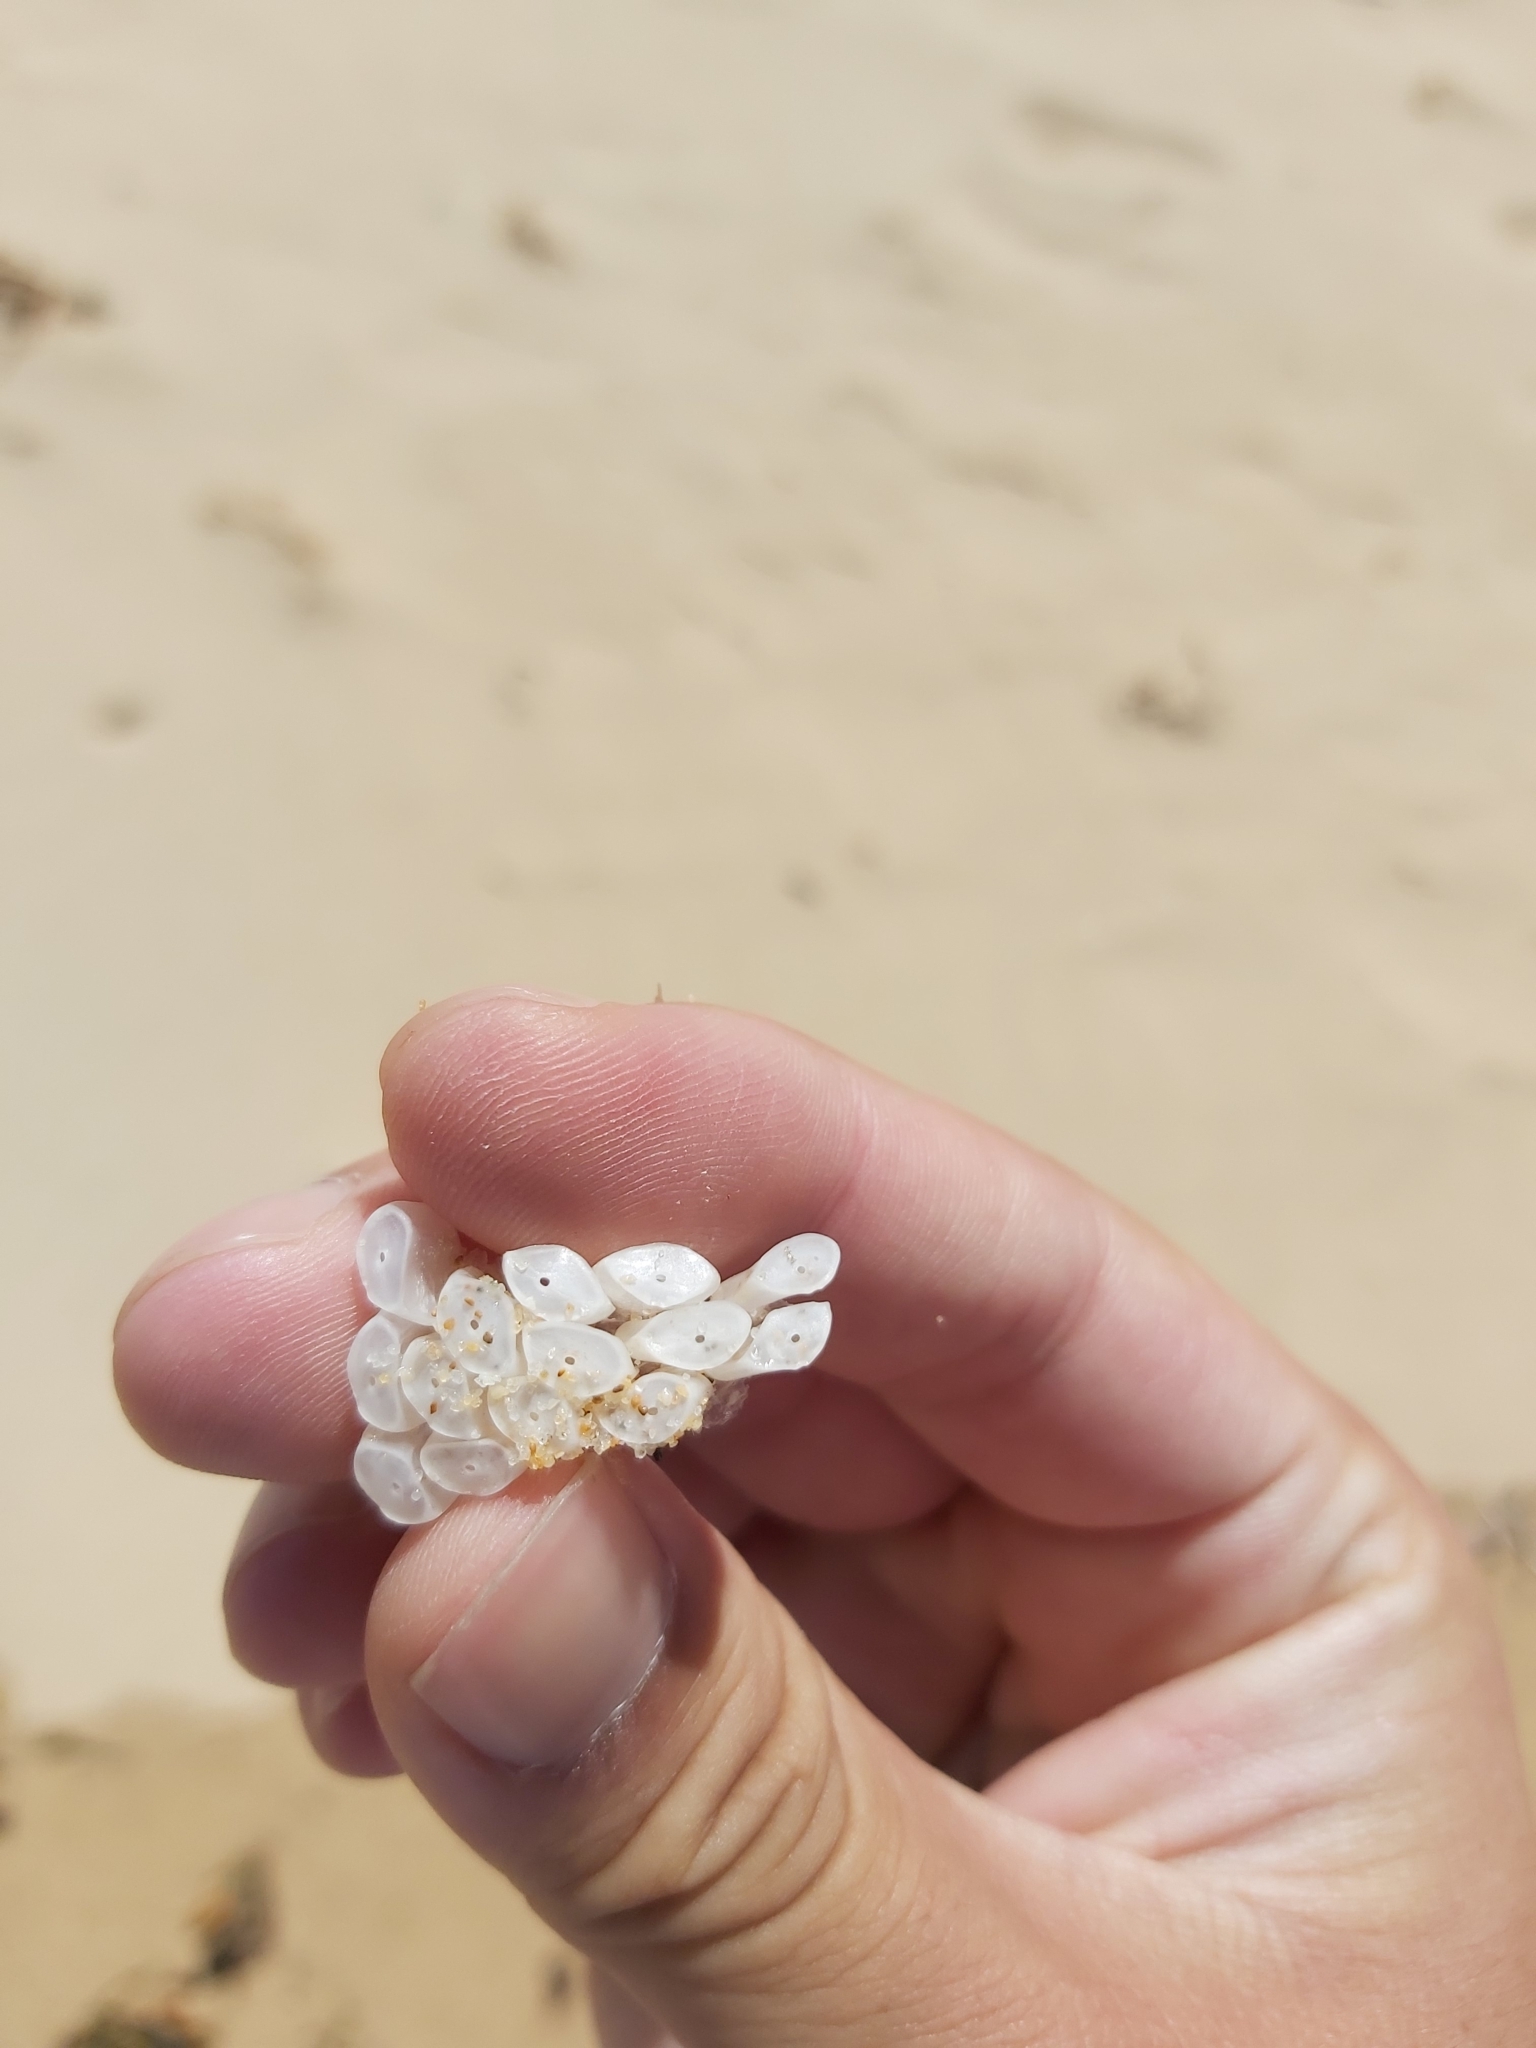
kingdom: Animalia
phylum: Mollusca
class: Gastropoda
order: Neogastropoda
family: Muricidae
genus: Dicathais
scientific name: Dicathais orbita
